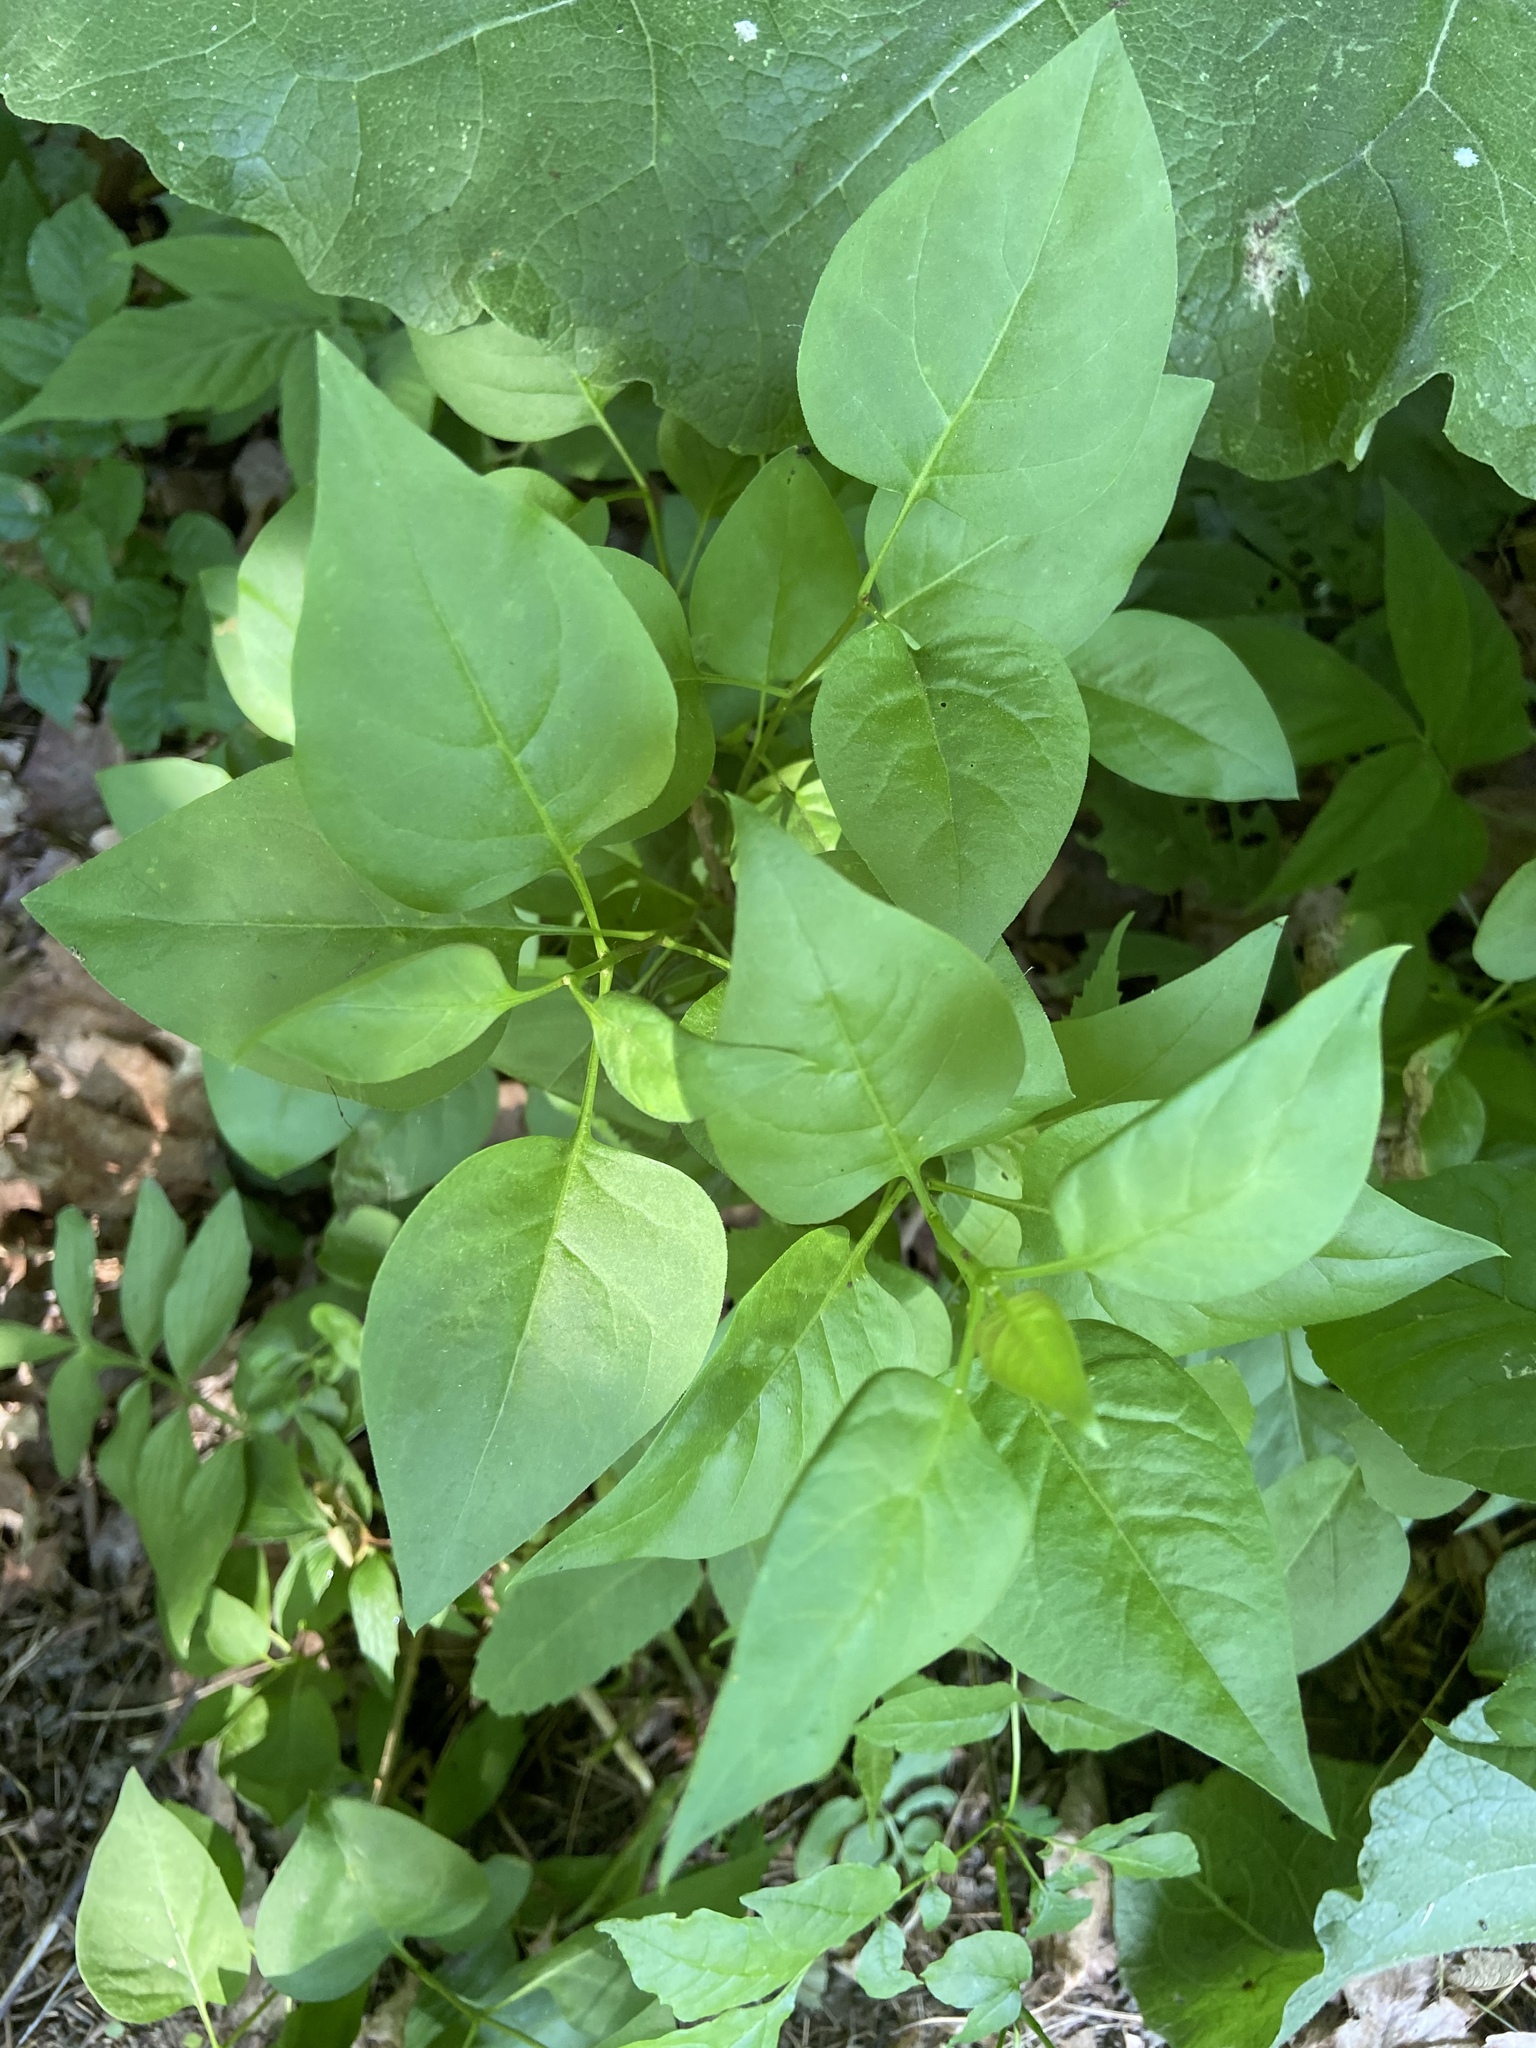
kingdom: Plantae
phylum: Tracheophyta
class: Magnoliopsida
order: Solanales
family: Solanaceae
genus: Solanum
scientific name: Solanum dulcamara
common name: Climbing nightshade
